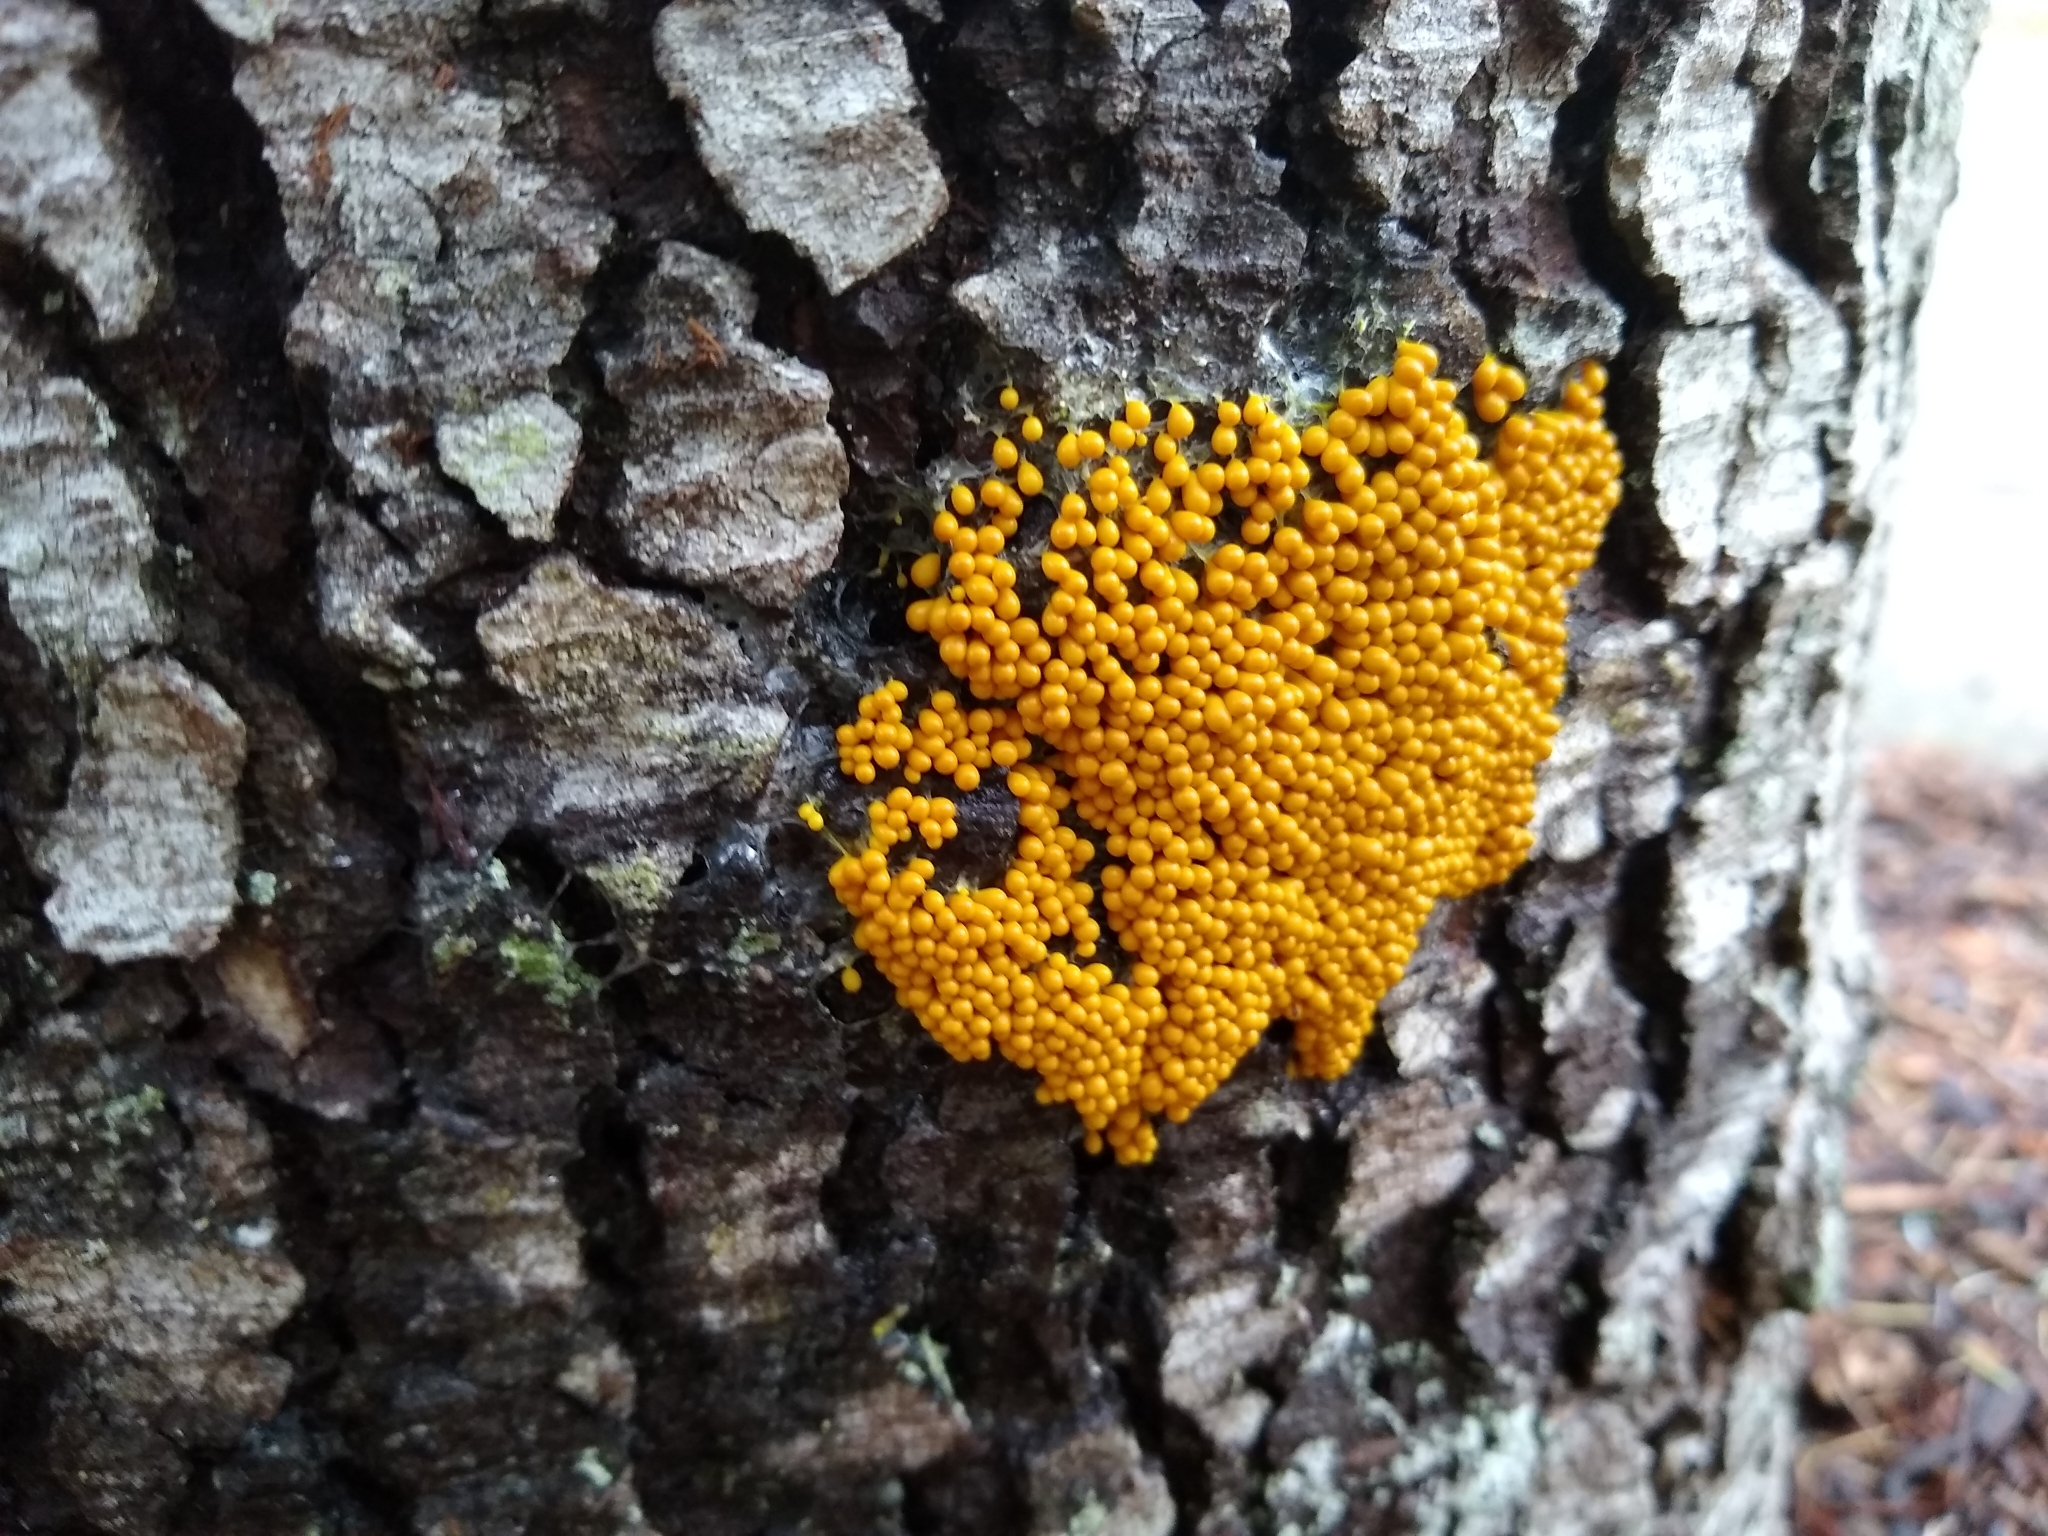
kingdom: Protozoa
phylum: Mycetozoa
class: Myxomycetes
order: Physarales
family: Physaraceae
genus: Leocarpus
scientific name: Leocarpus fragilis
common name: Insect-egg slime
